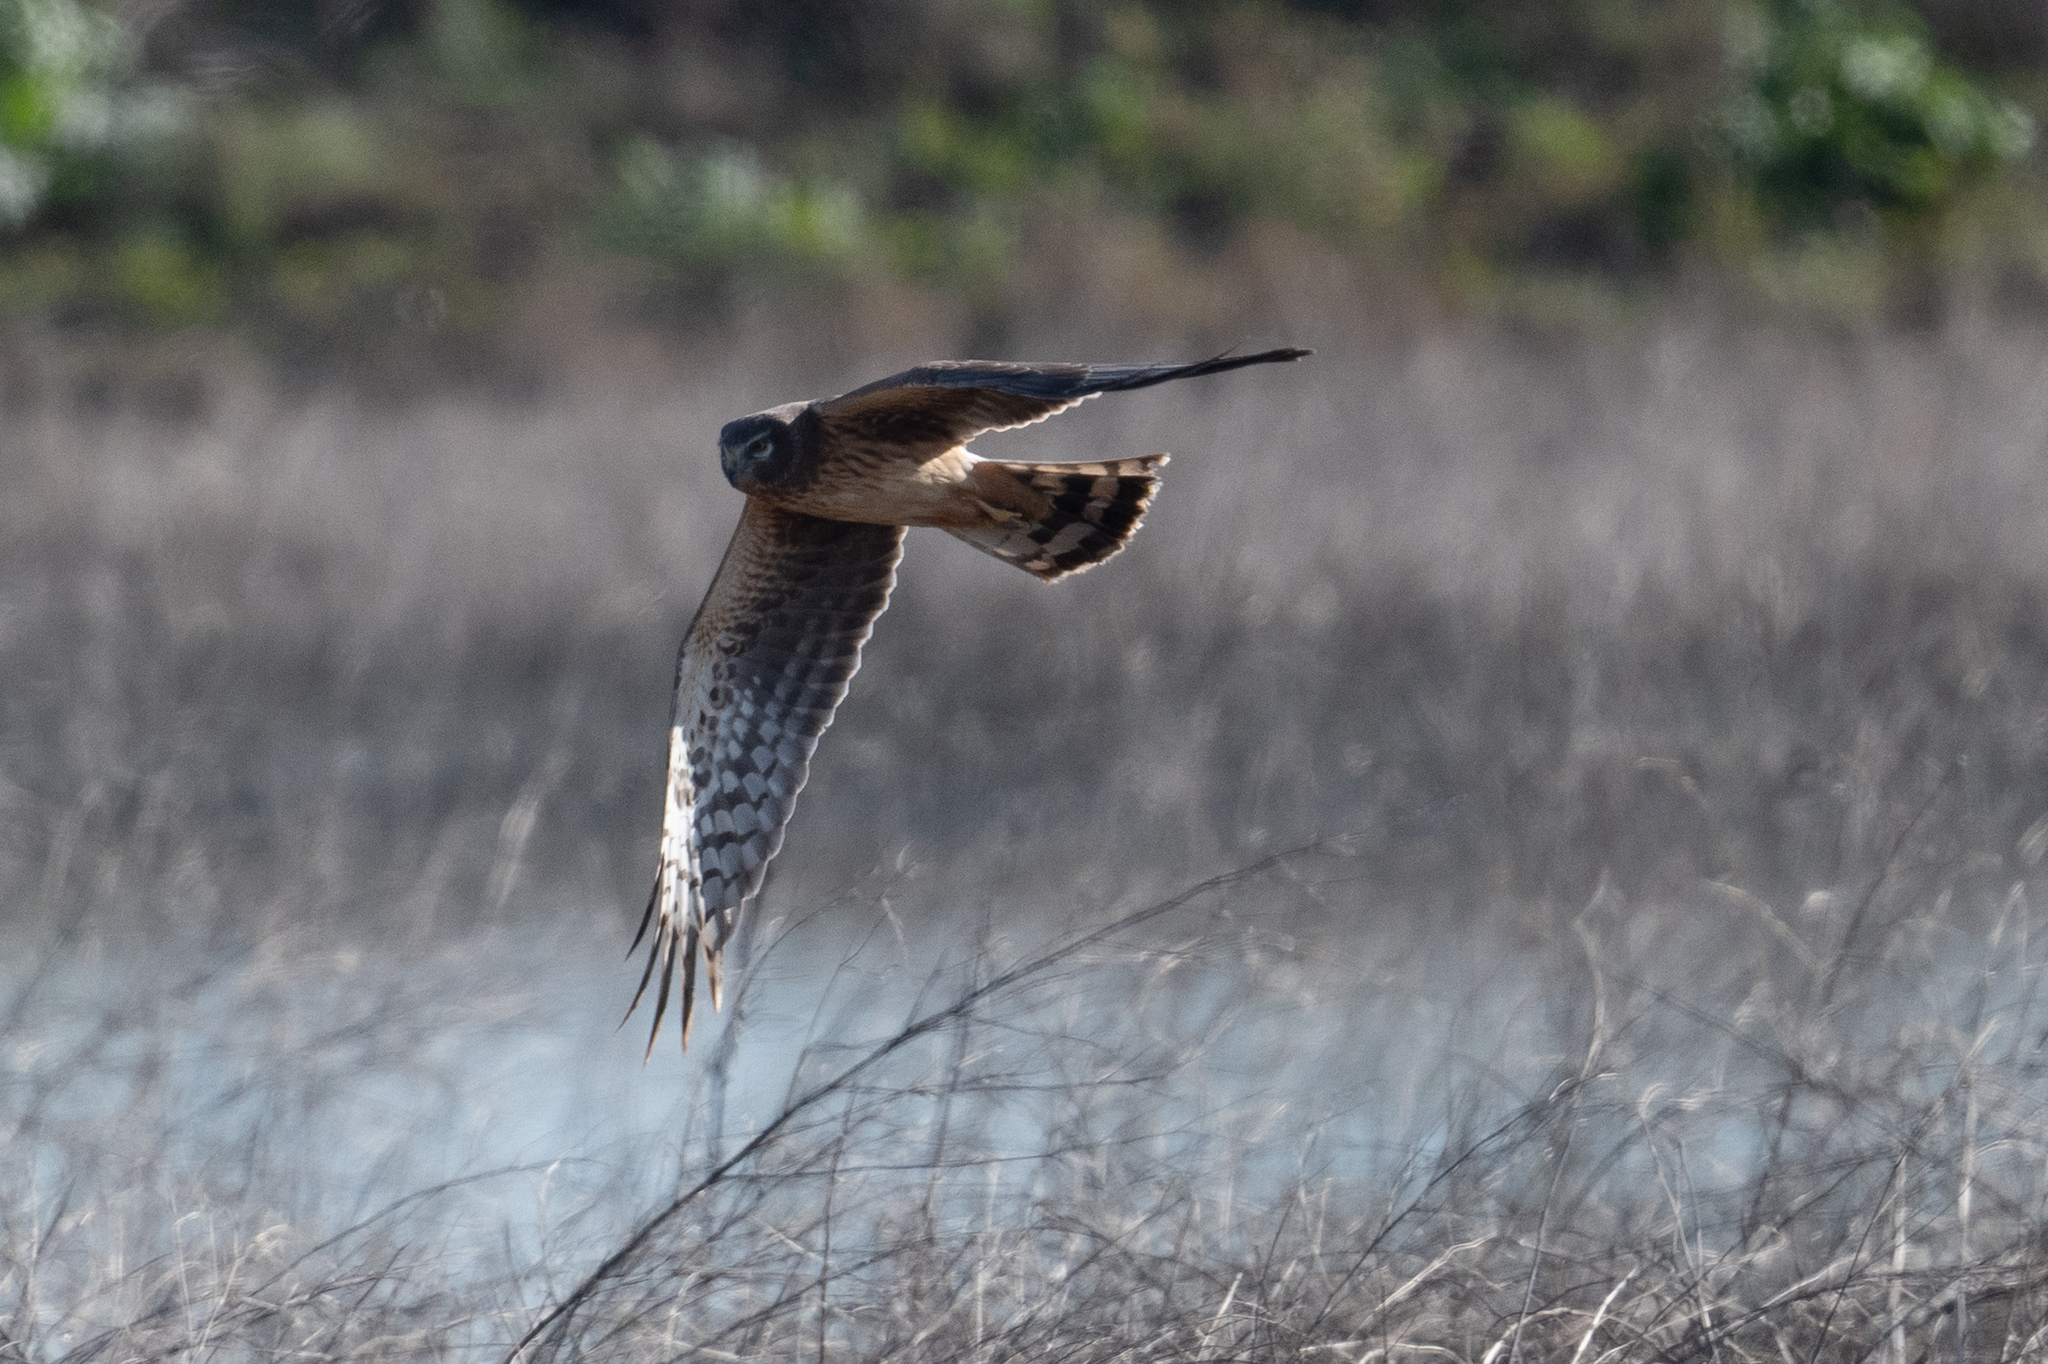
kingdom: Animalia
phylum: Chordata
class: Aves
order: Accipitriformes
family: Accipitridae
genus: Circus
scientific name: Circus cyaneus
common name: Hen harrier
